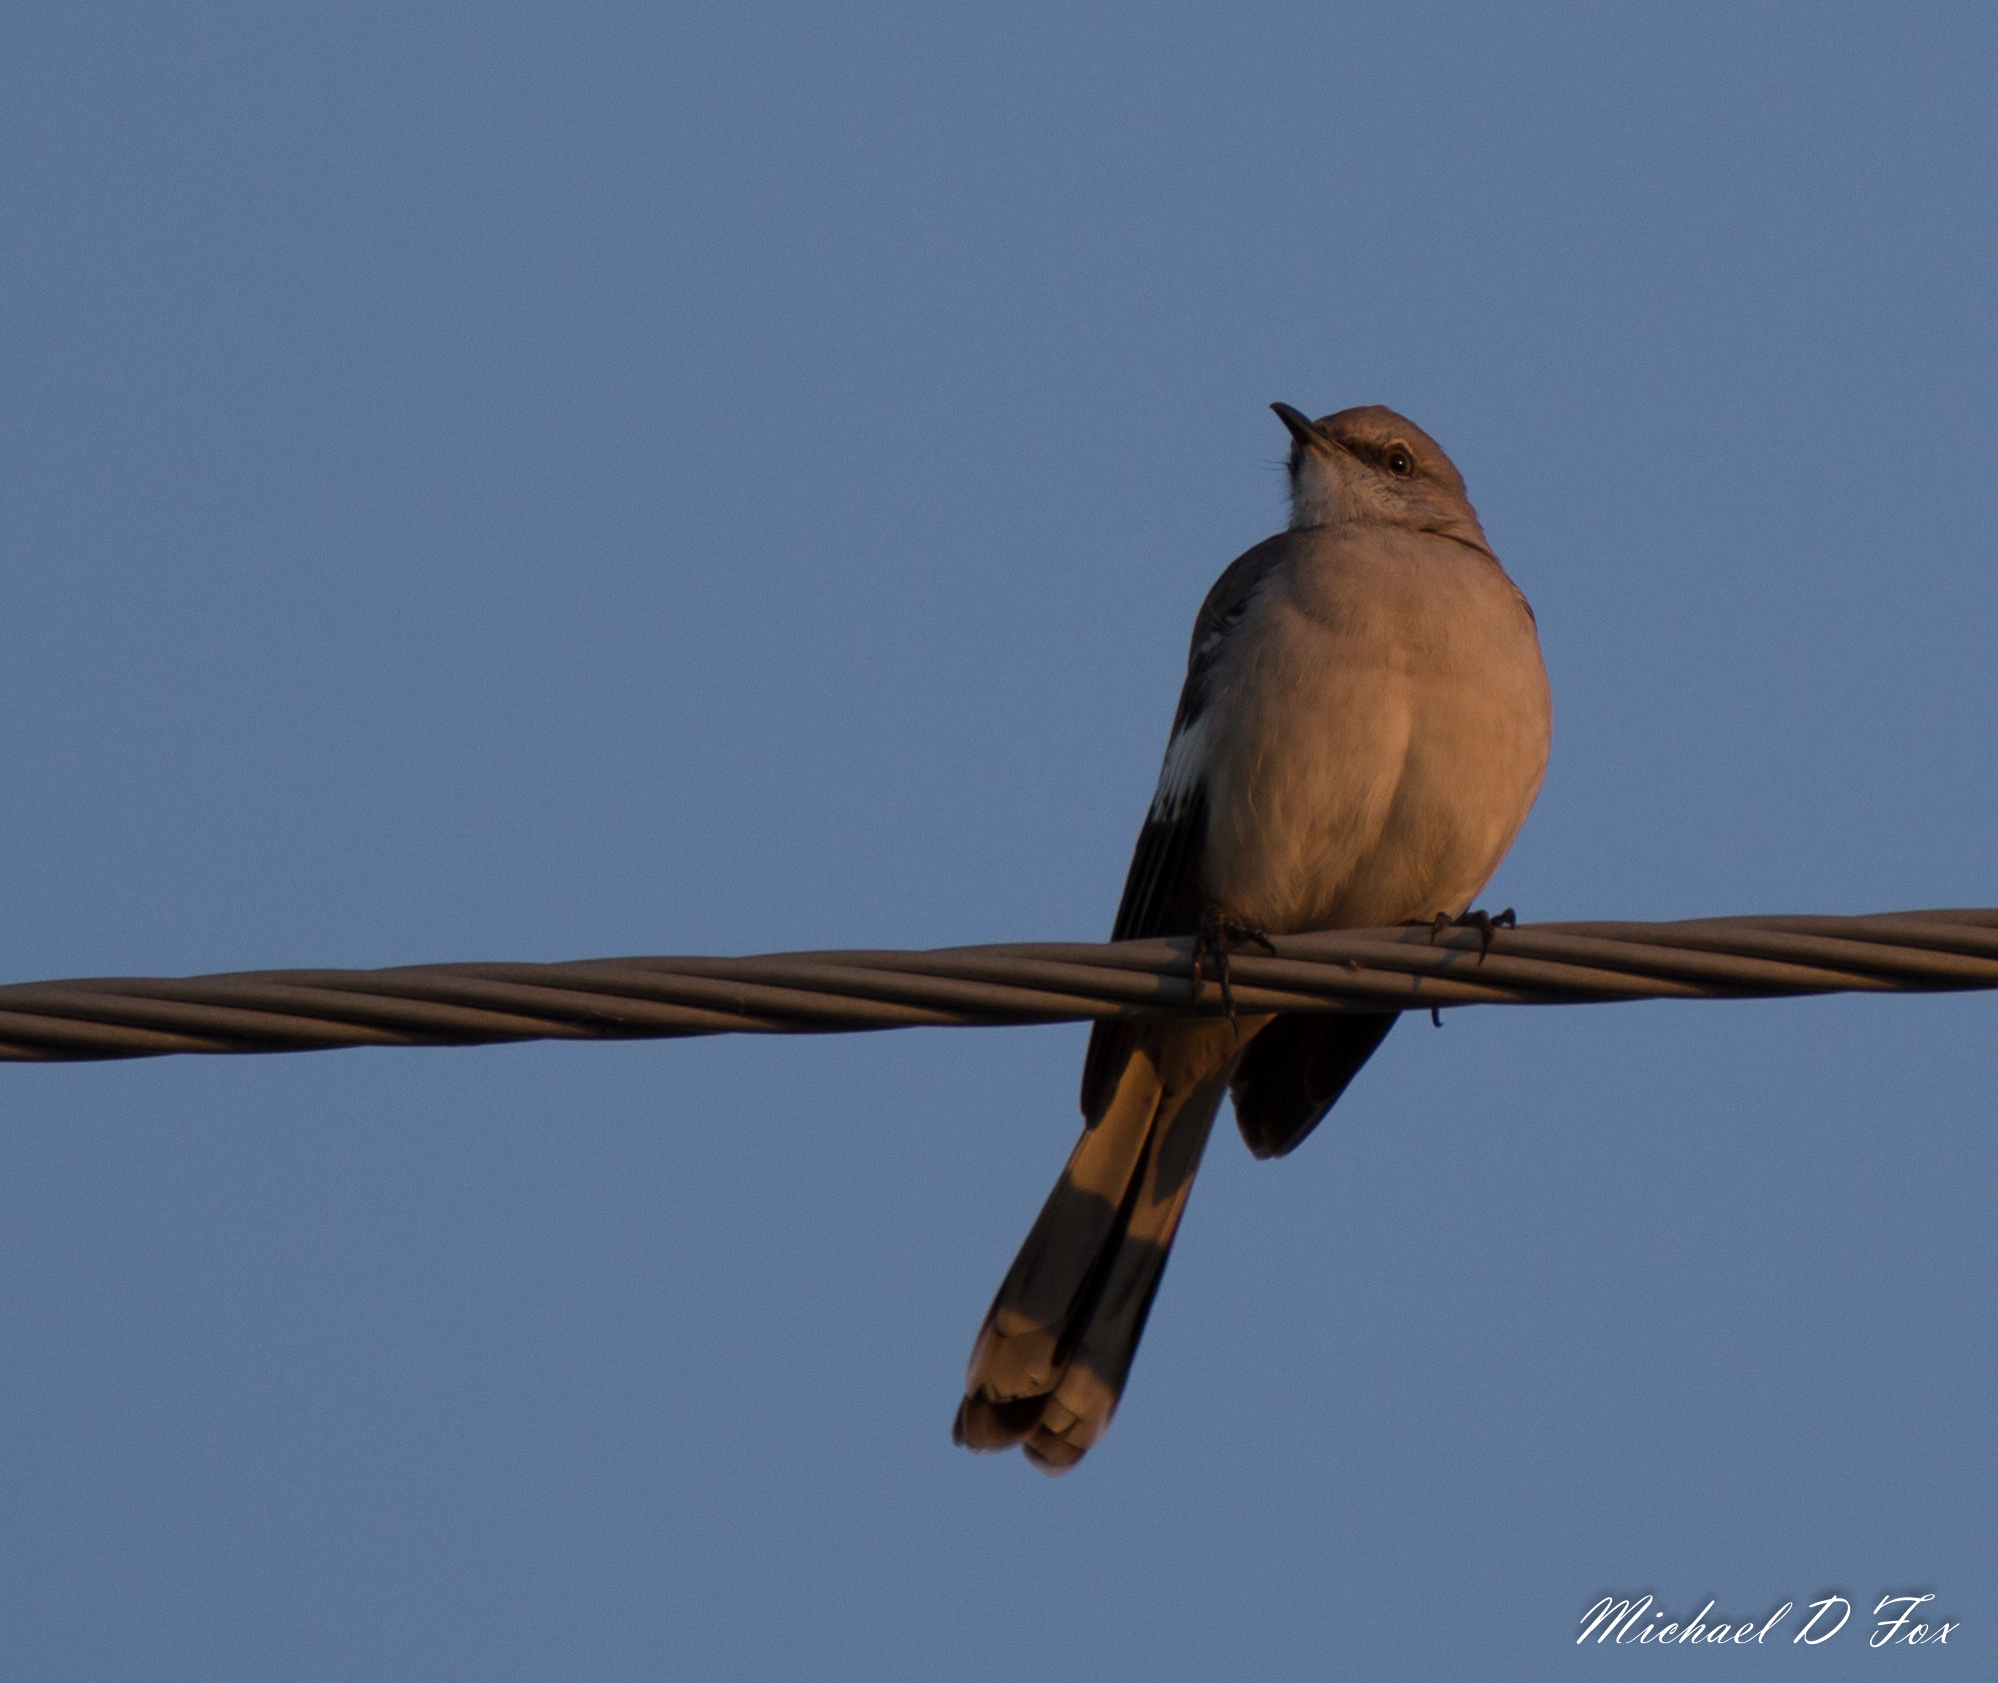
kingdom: Animalia
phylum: Chordata
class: Aves
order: Passeriformes
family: Mimidae
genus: Mimus
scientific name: Mimus polyglottos
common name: Northern mockingbird
